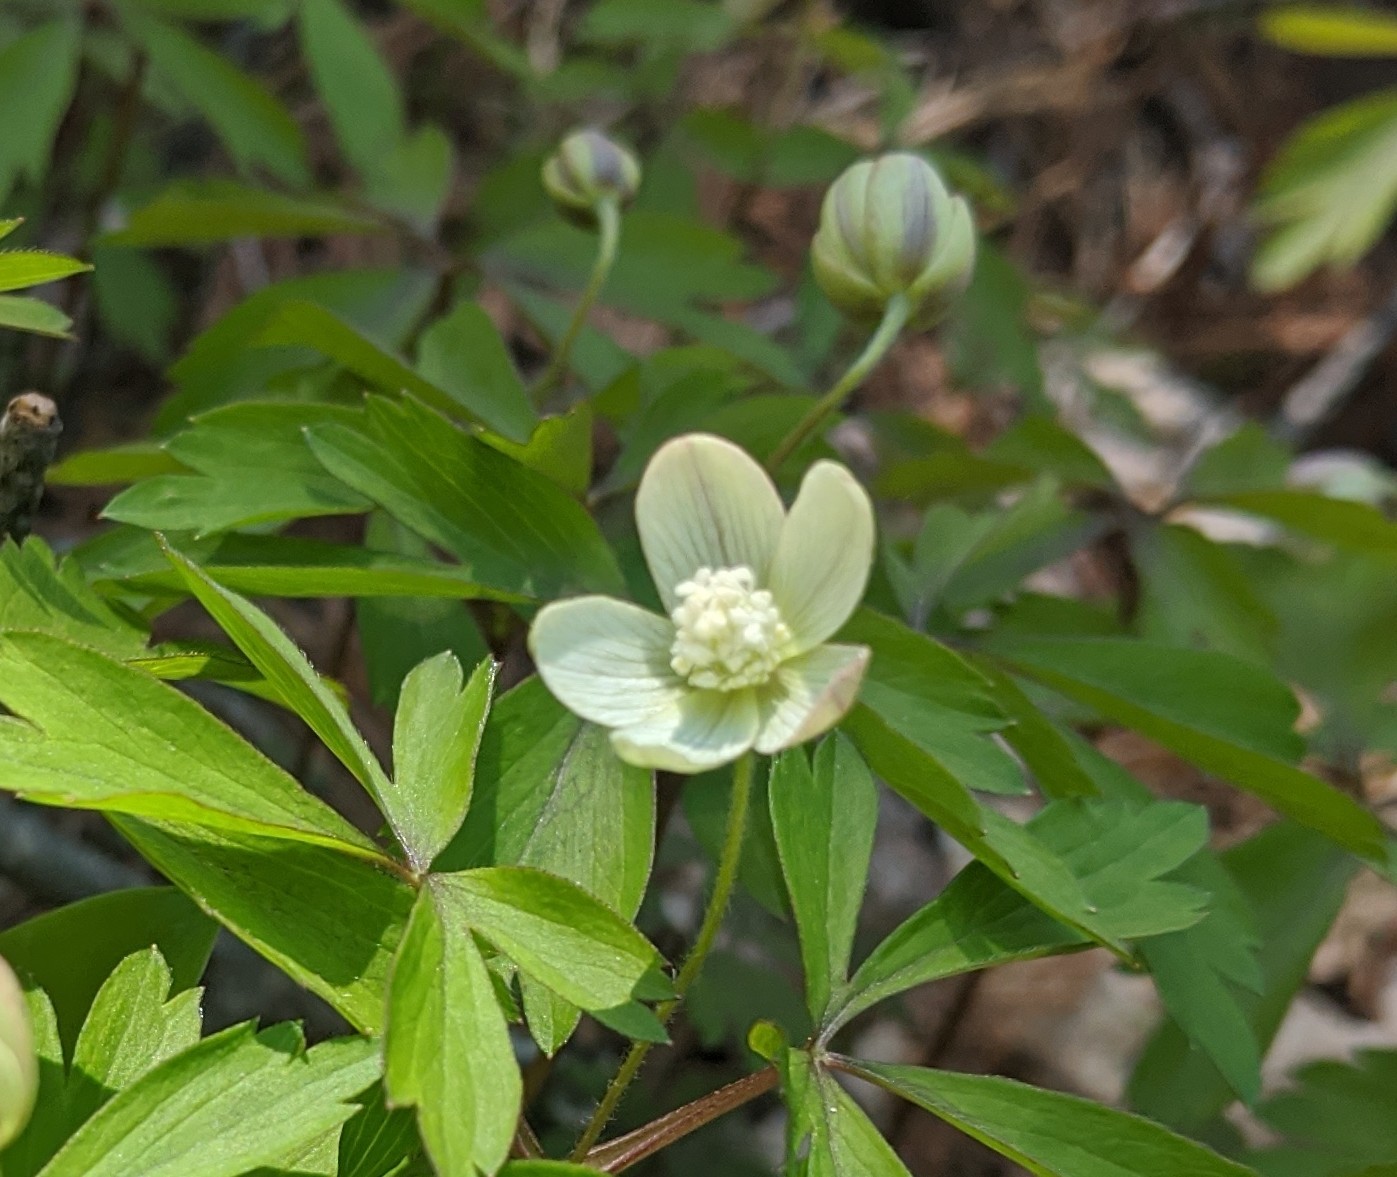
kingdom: Plantae
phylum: Tracheophyta
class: Magnoliopsida
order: Ranunculales
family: Ranunculaceae
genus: Anemone
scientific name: Anemone quinquefolia
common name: Wood anemone
